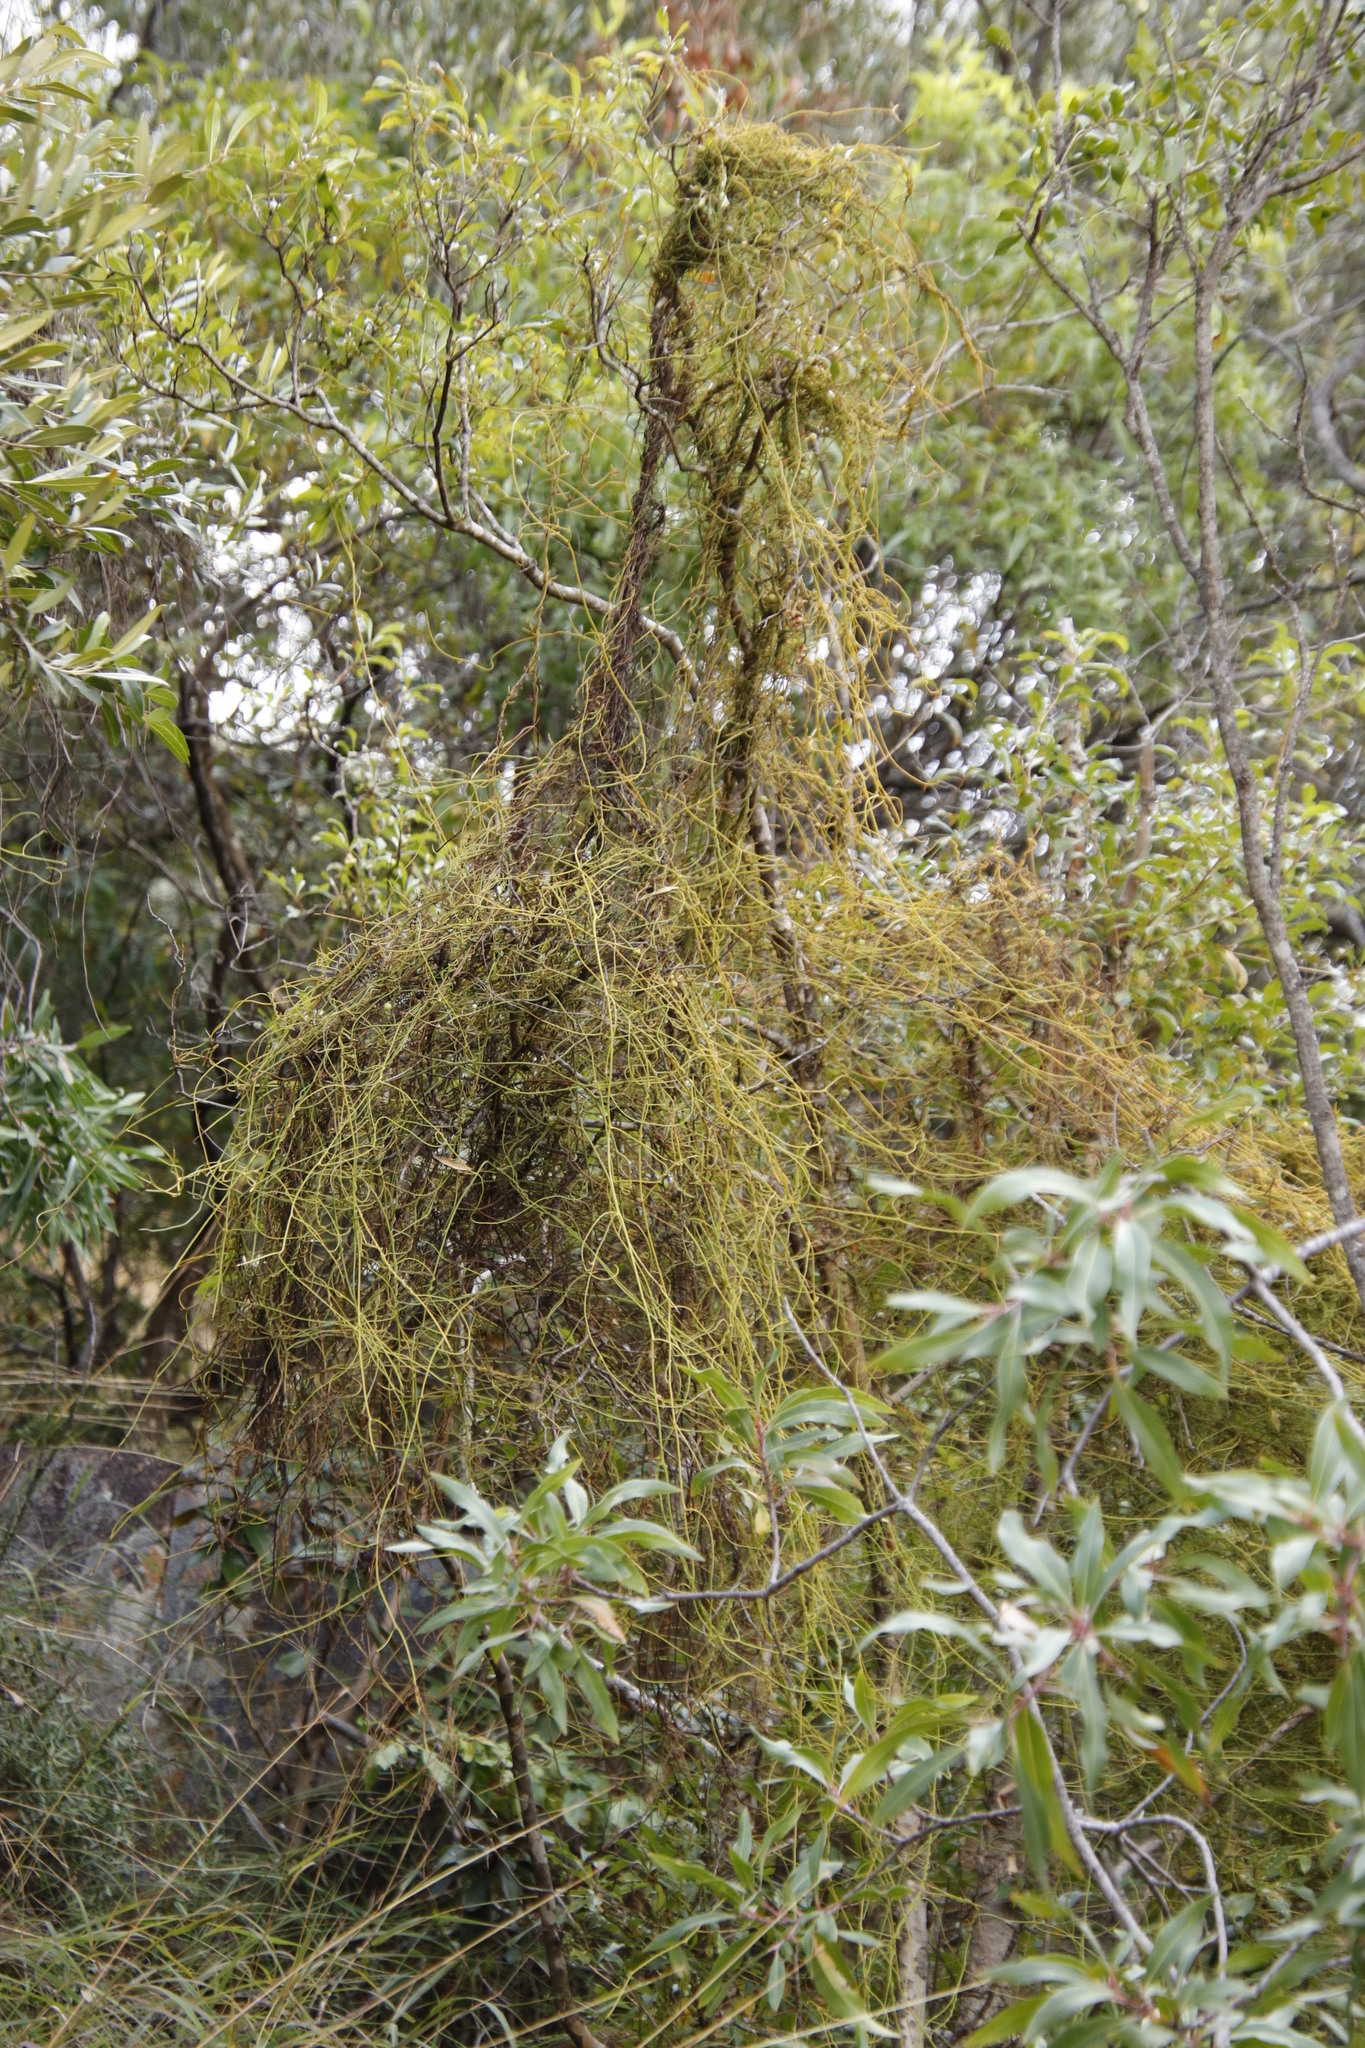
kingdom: Plantae
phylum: Tracheophyta
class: Magnoliopsida
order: Laurales
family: Lauraceae
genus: Cassytha
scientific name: Cassytha filiformis
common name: Dodder-laurel
